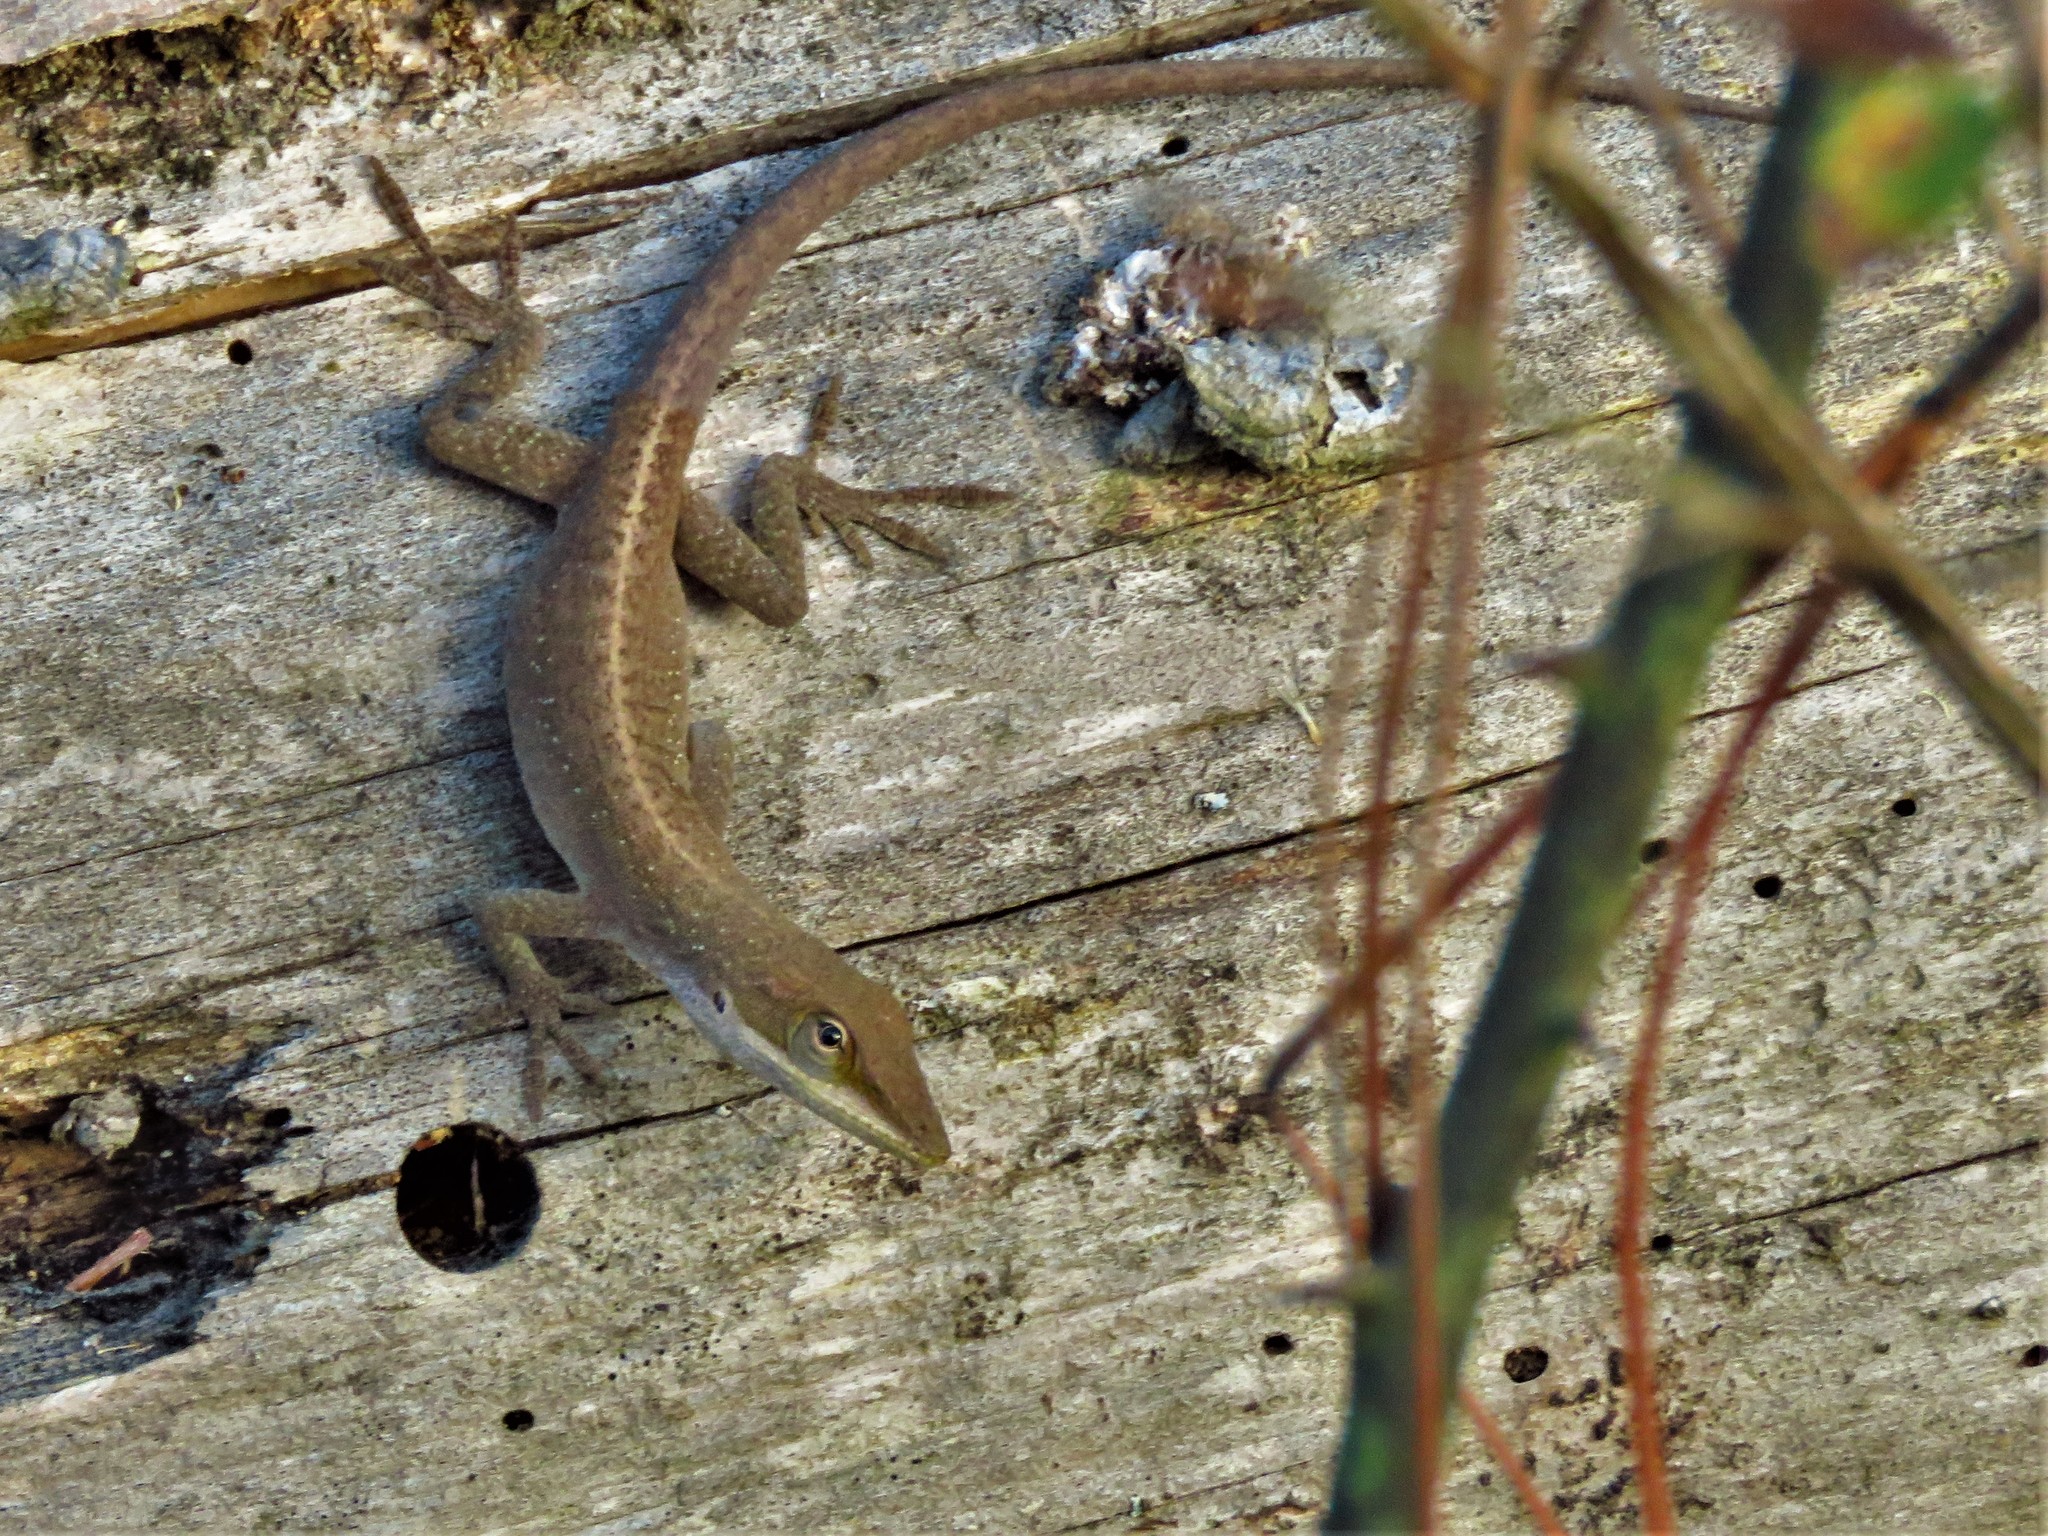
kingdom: Animalia
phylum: Chordata
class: Squamata
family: Dactyloidae
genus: Anolis
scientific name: Anolis carolinensis
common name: Green anole
